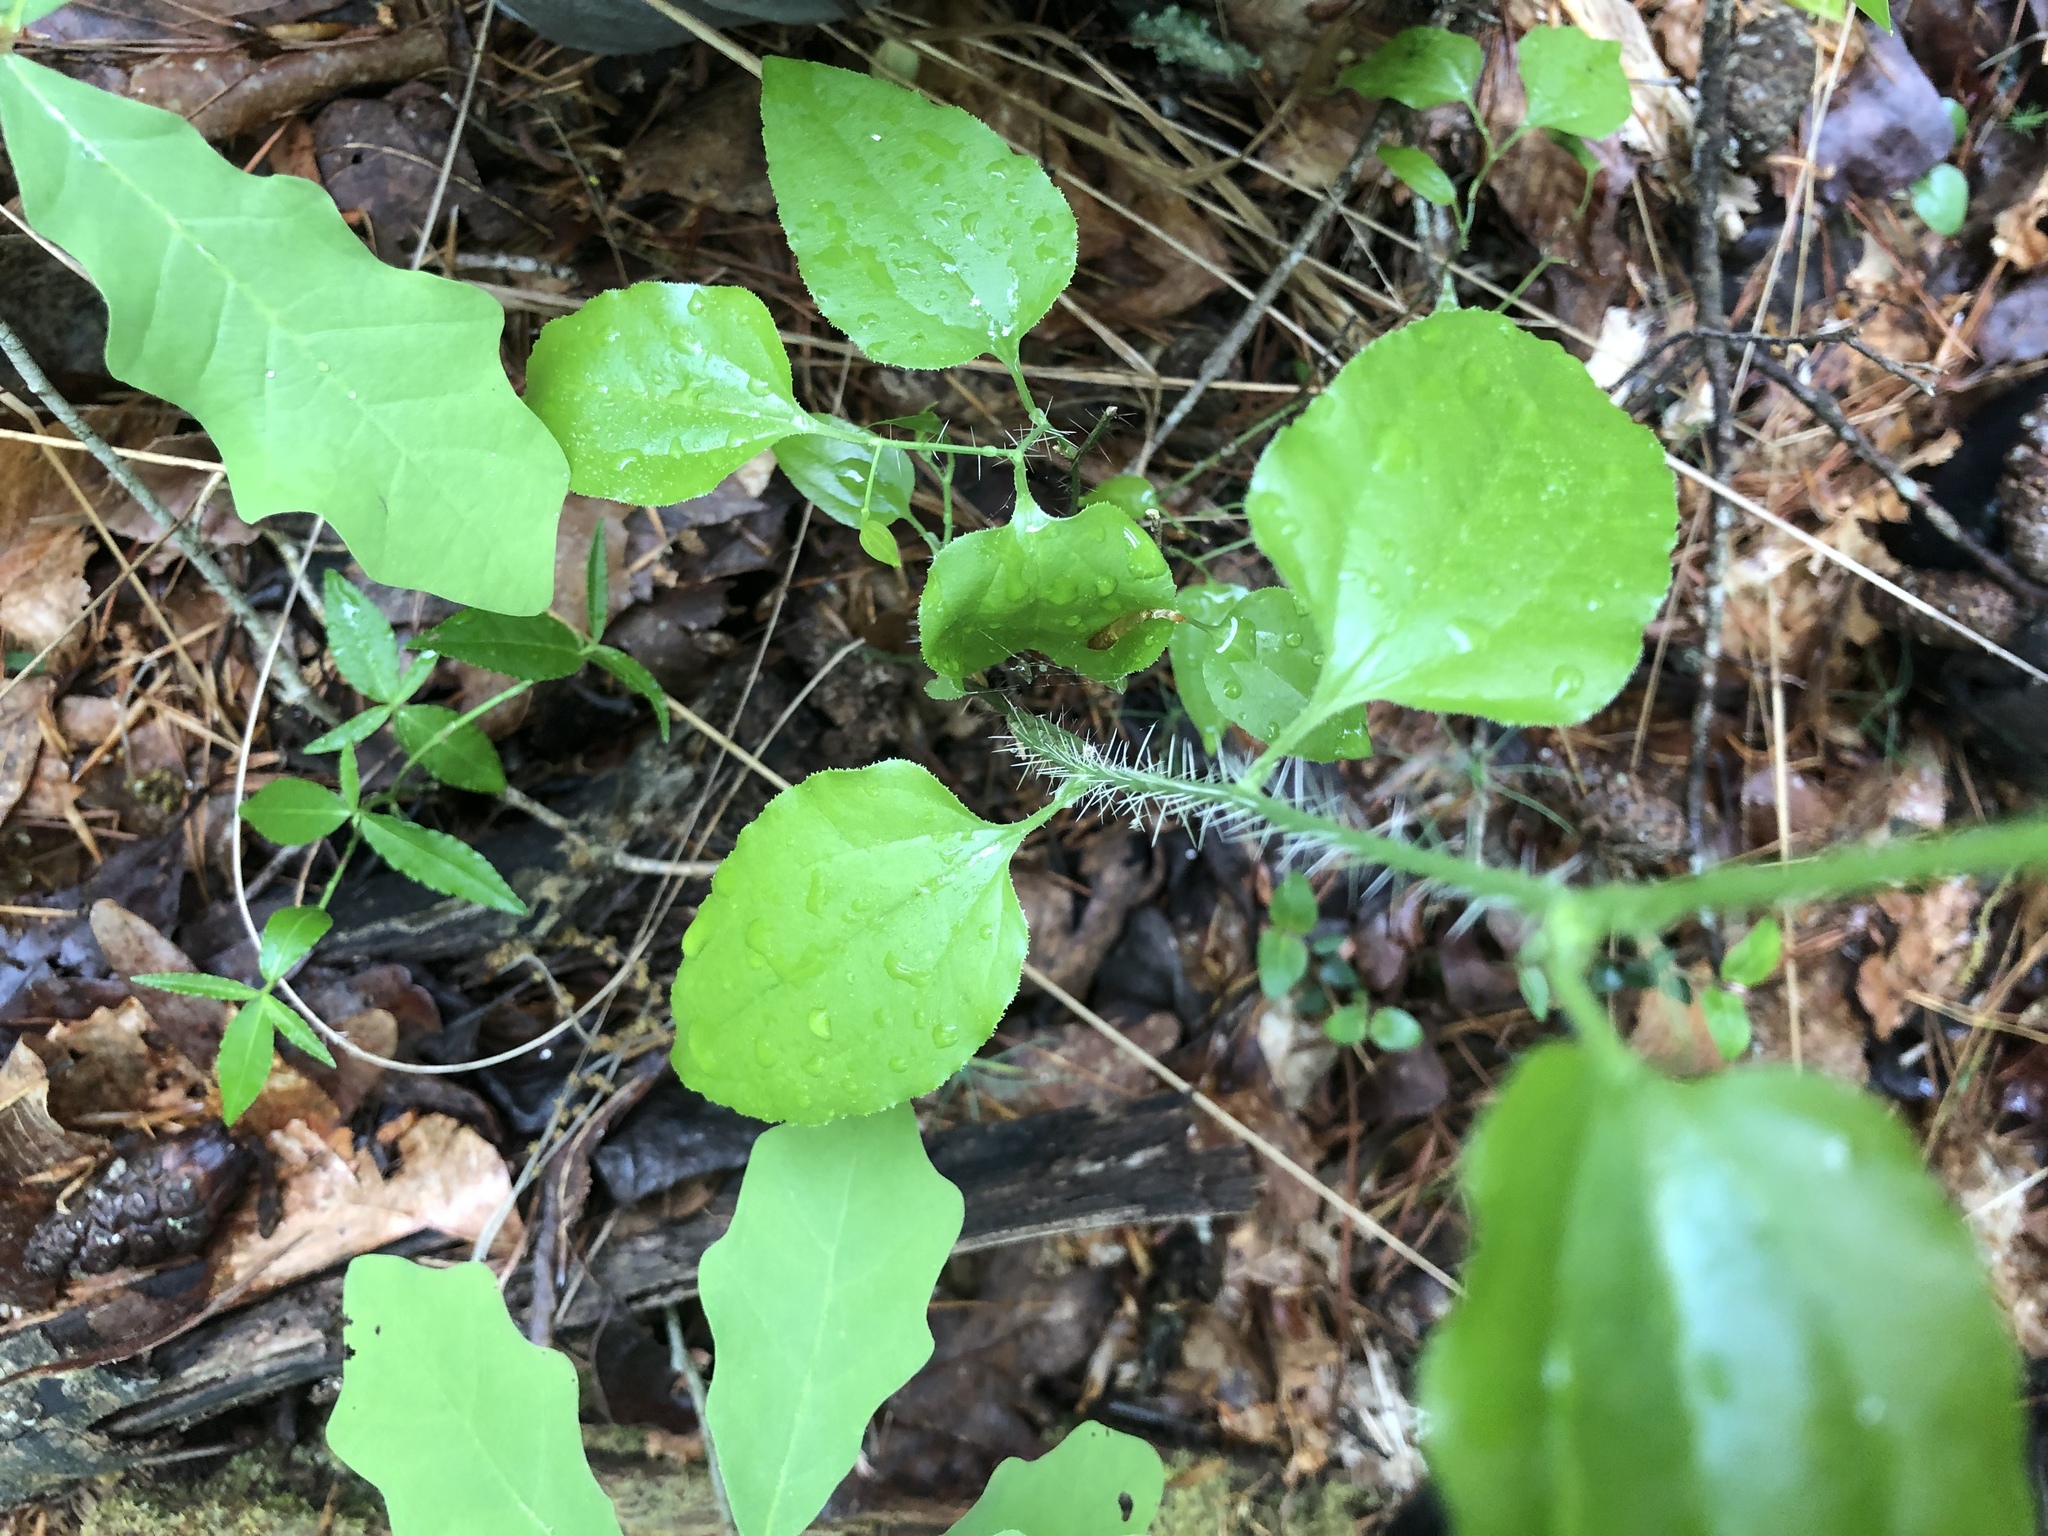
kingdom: Plantae
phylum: Tracheophyta
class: Liliopsida
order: Liliales
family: Smilacaceae
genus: Smilax
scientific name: Smilax tamnoides
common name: Hellfetter
